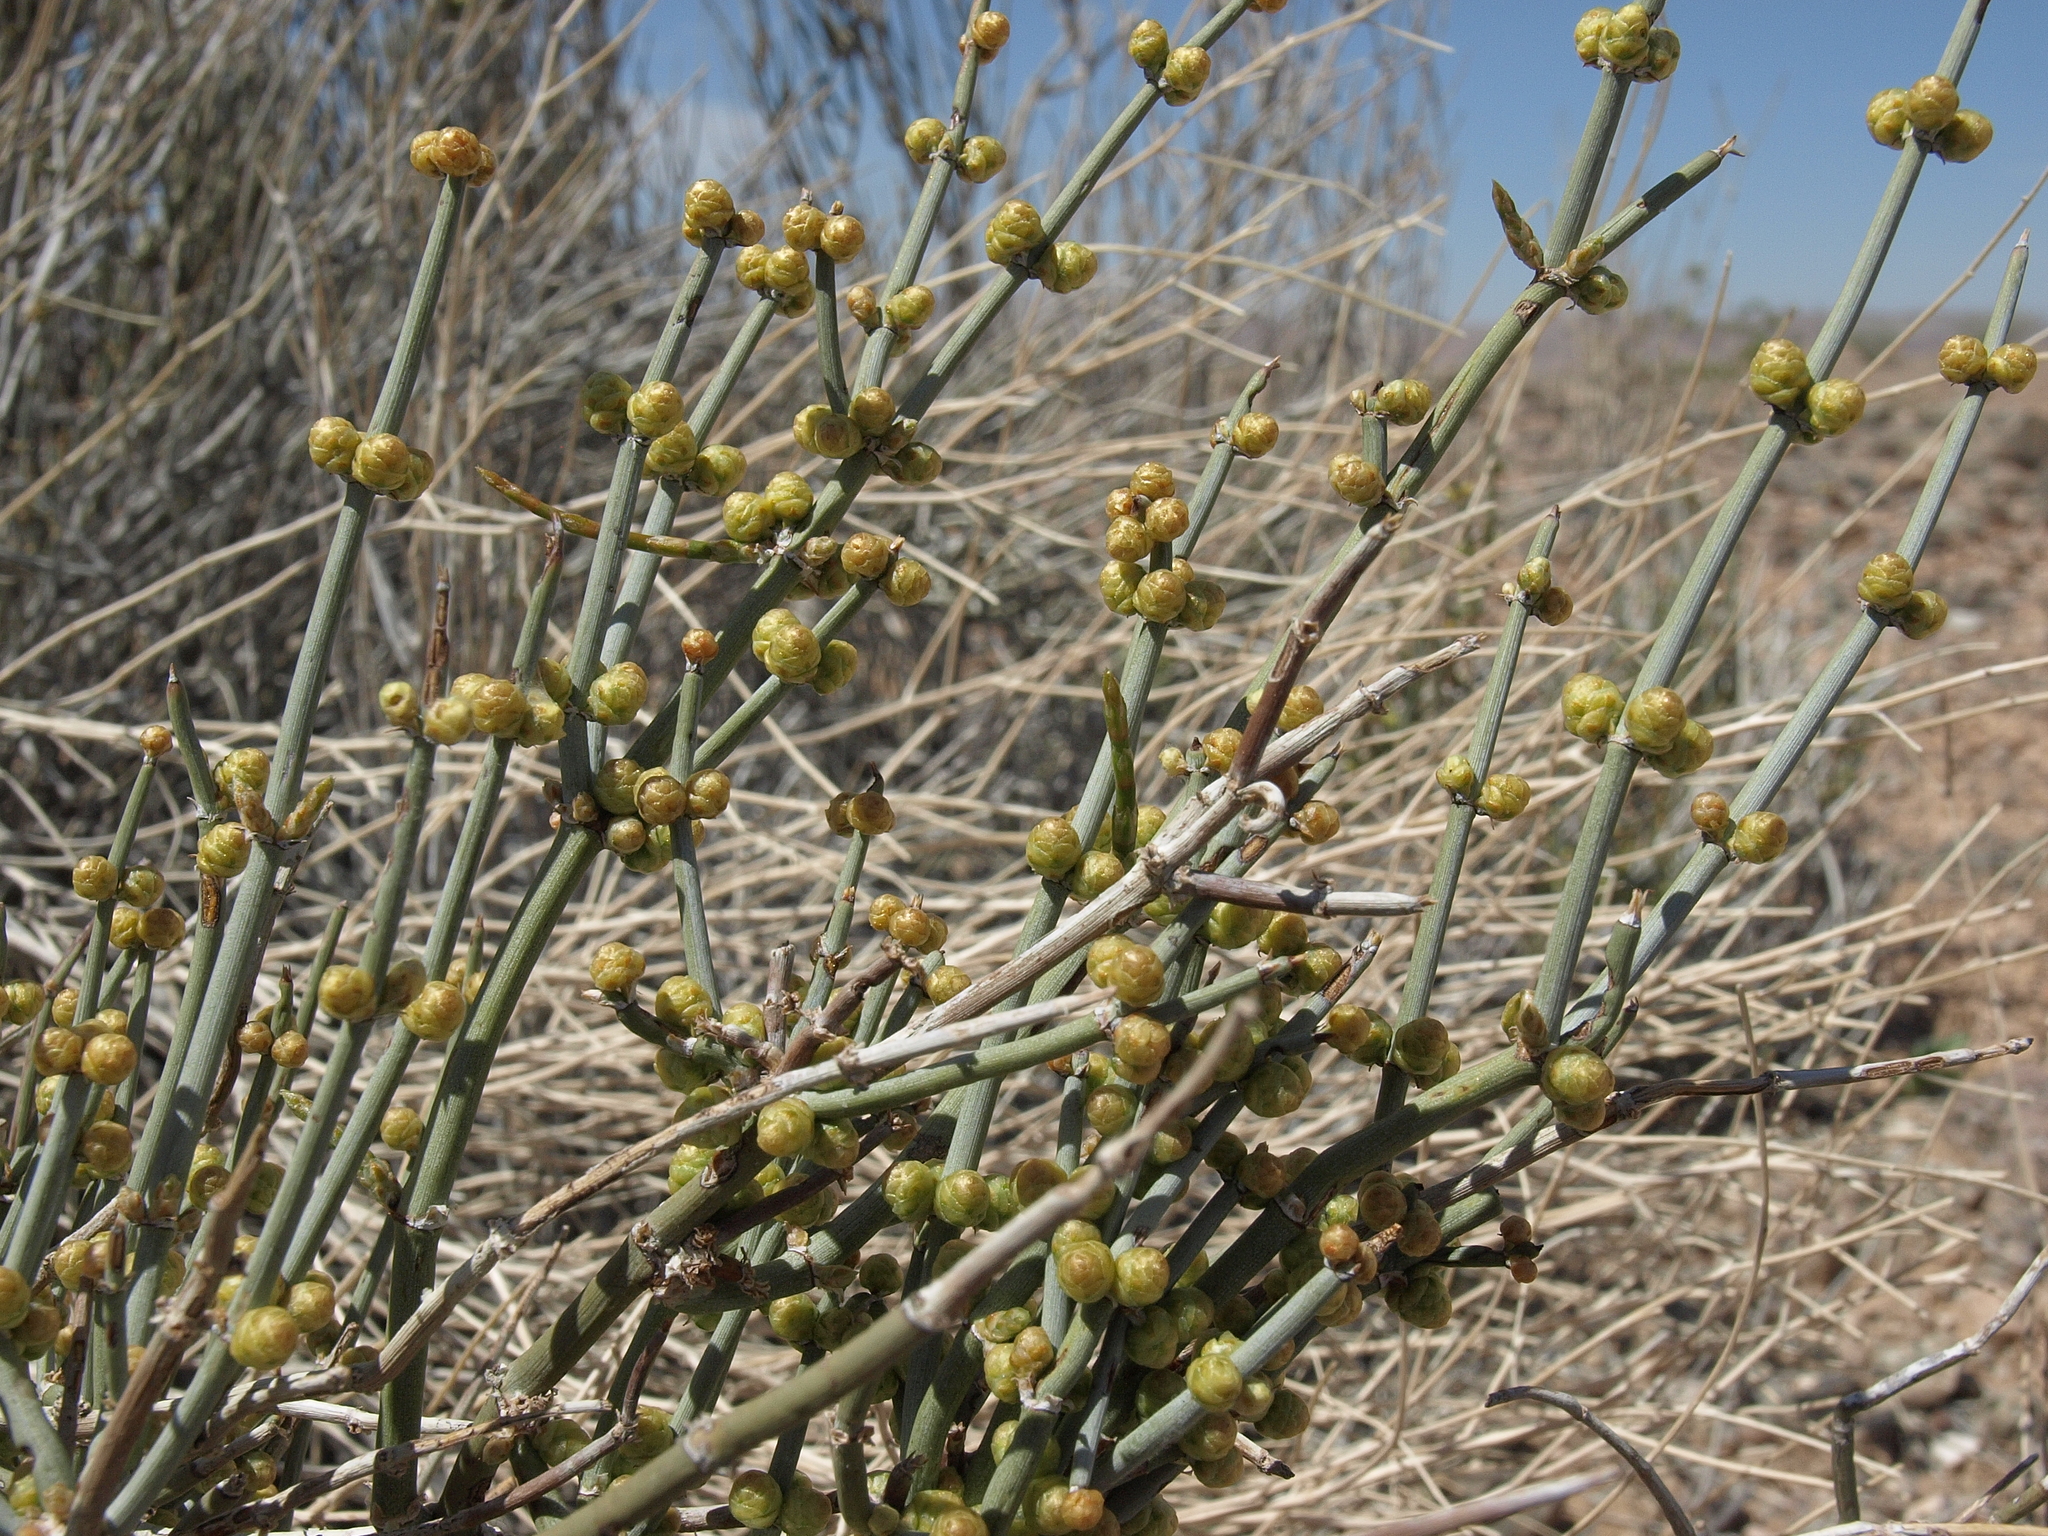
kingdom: Plantae
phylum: Tracheophyta
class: Gnetopsida
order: Ephedrales
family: Ephedraceae
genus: Ephedra
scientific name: Ephedra torreyana
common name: Torrey ephedra
